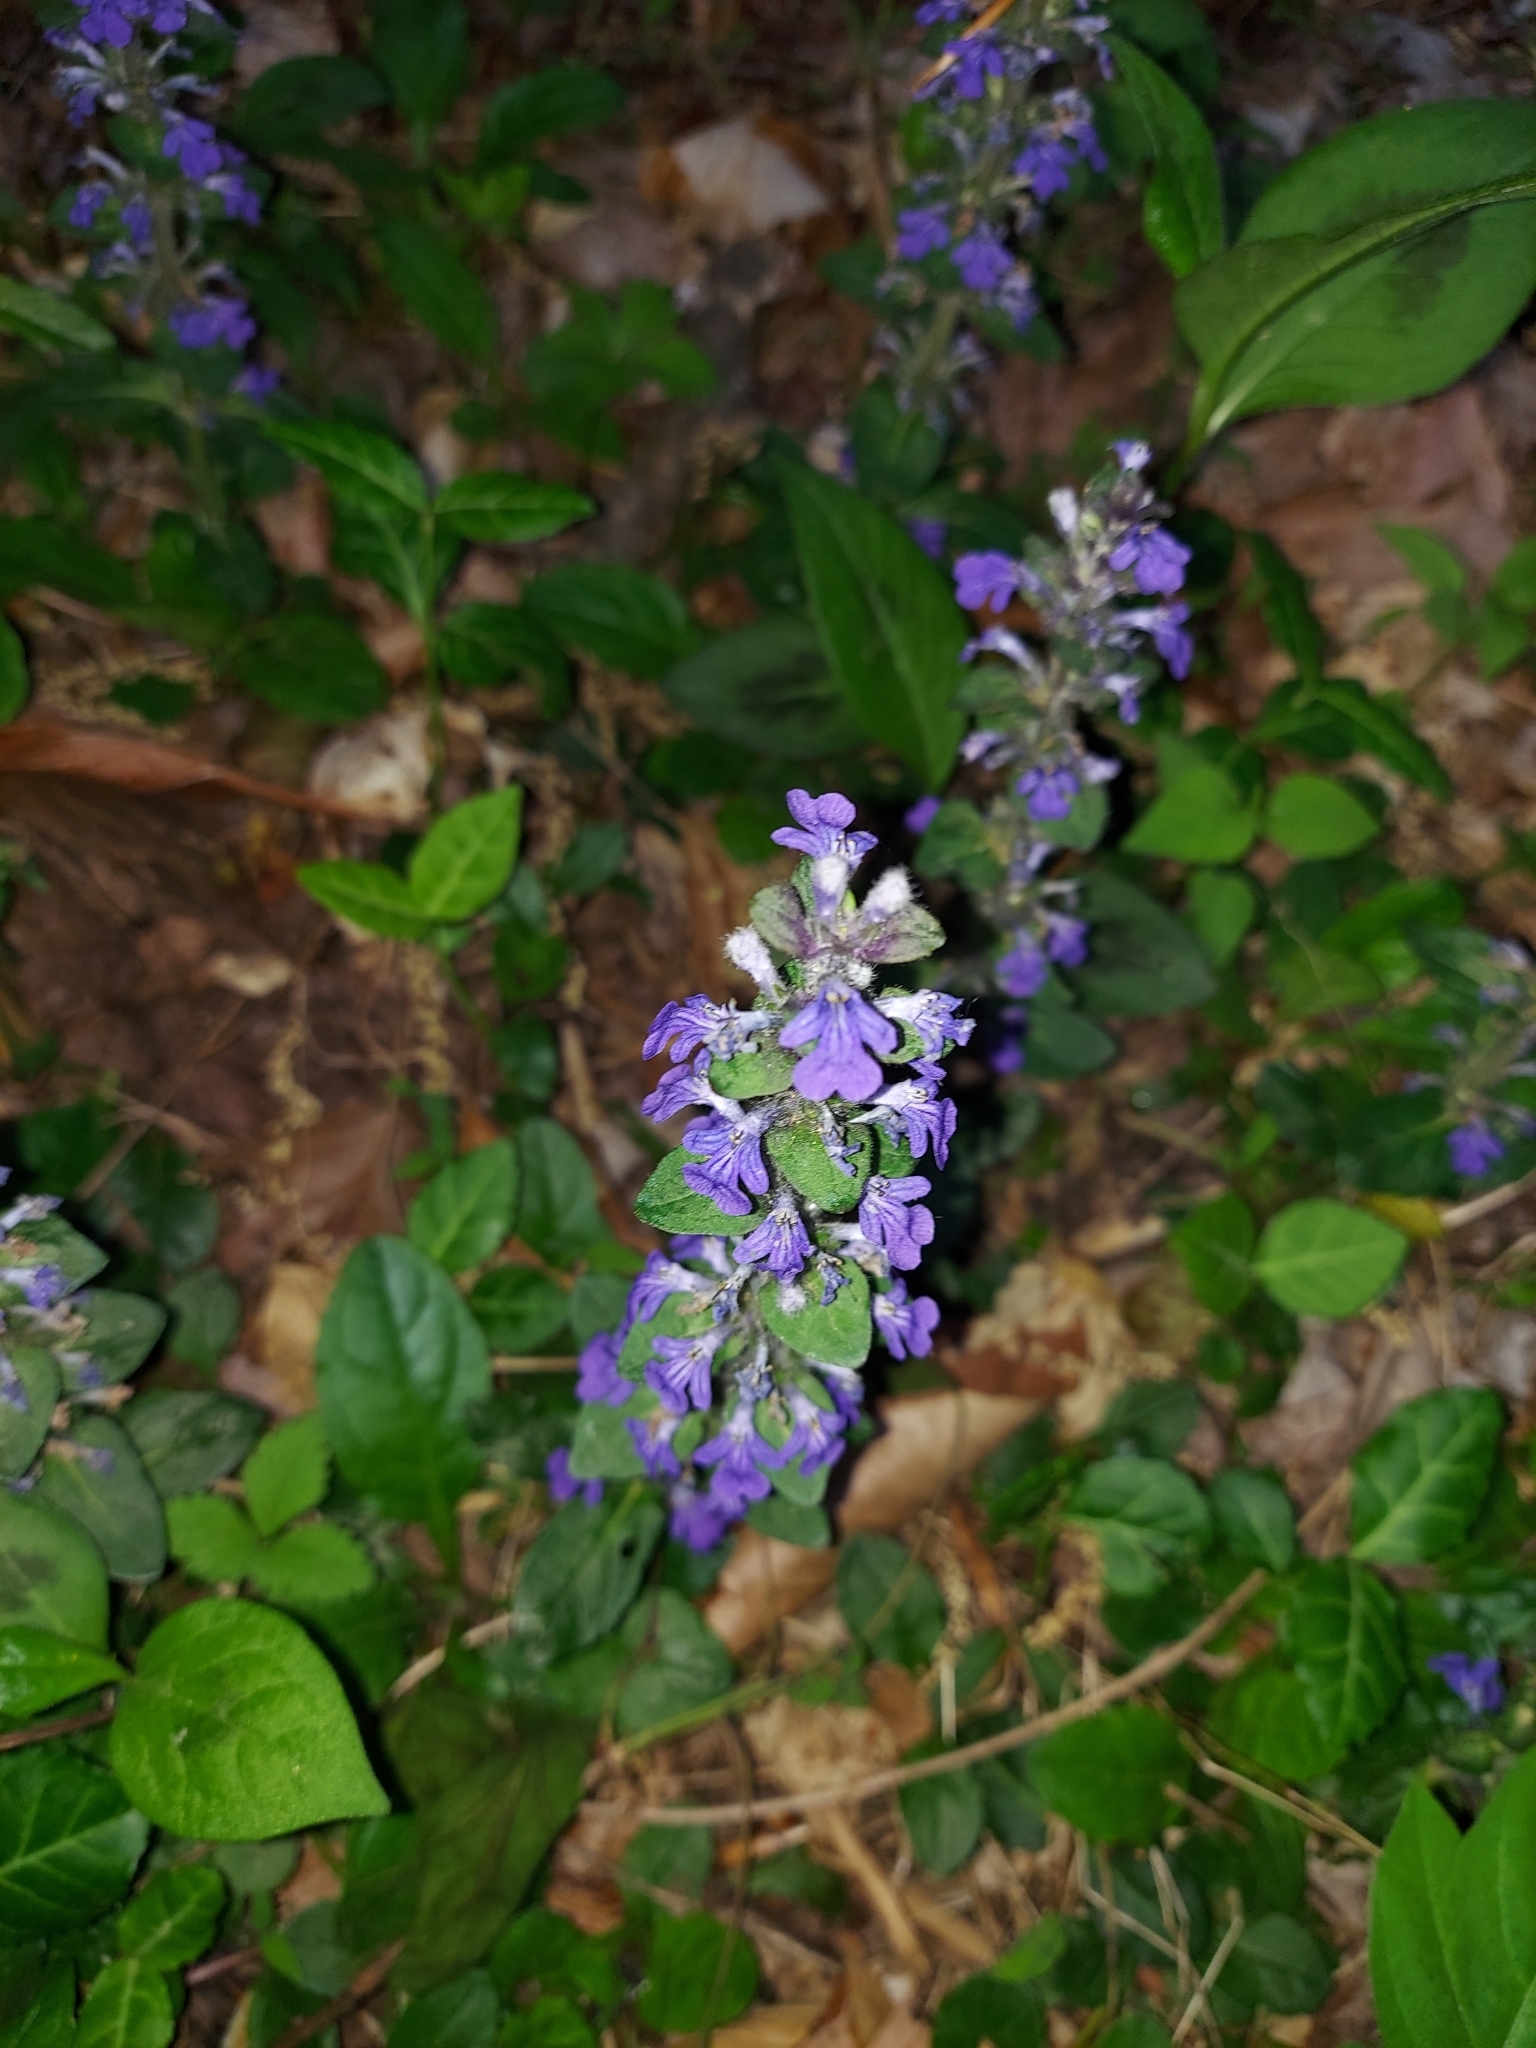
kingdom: Plantae
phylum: Tracheophyta
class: Magnoliopsida
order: Lamiales
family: Lamiaceae
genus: Ajuga
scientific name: Ajuga reptans
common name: Bugle
